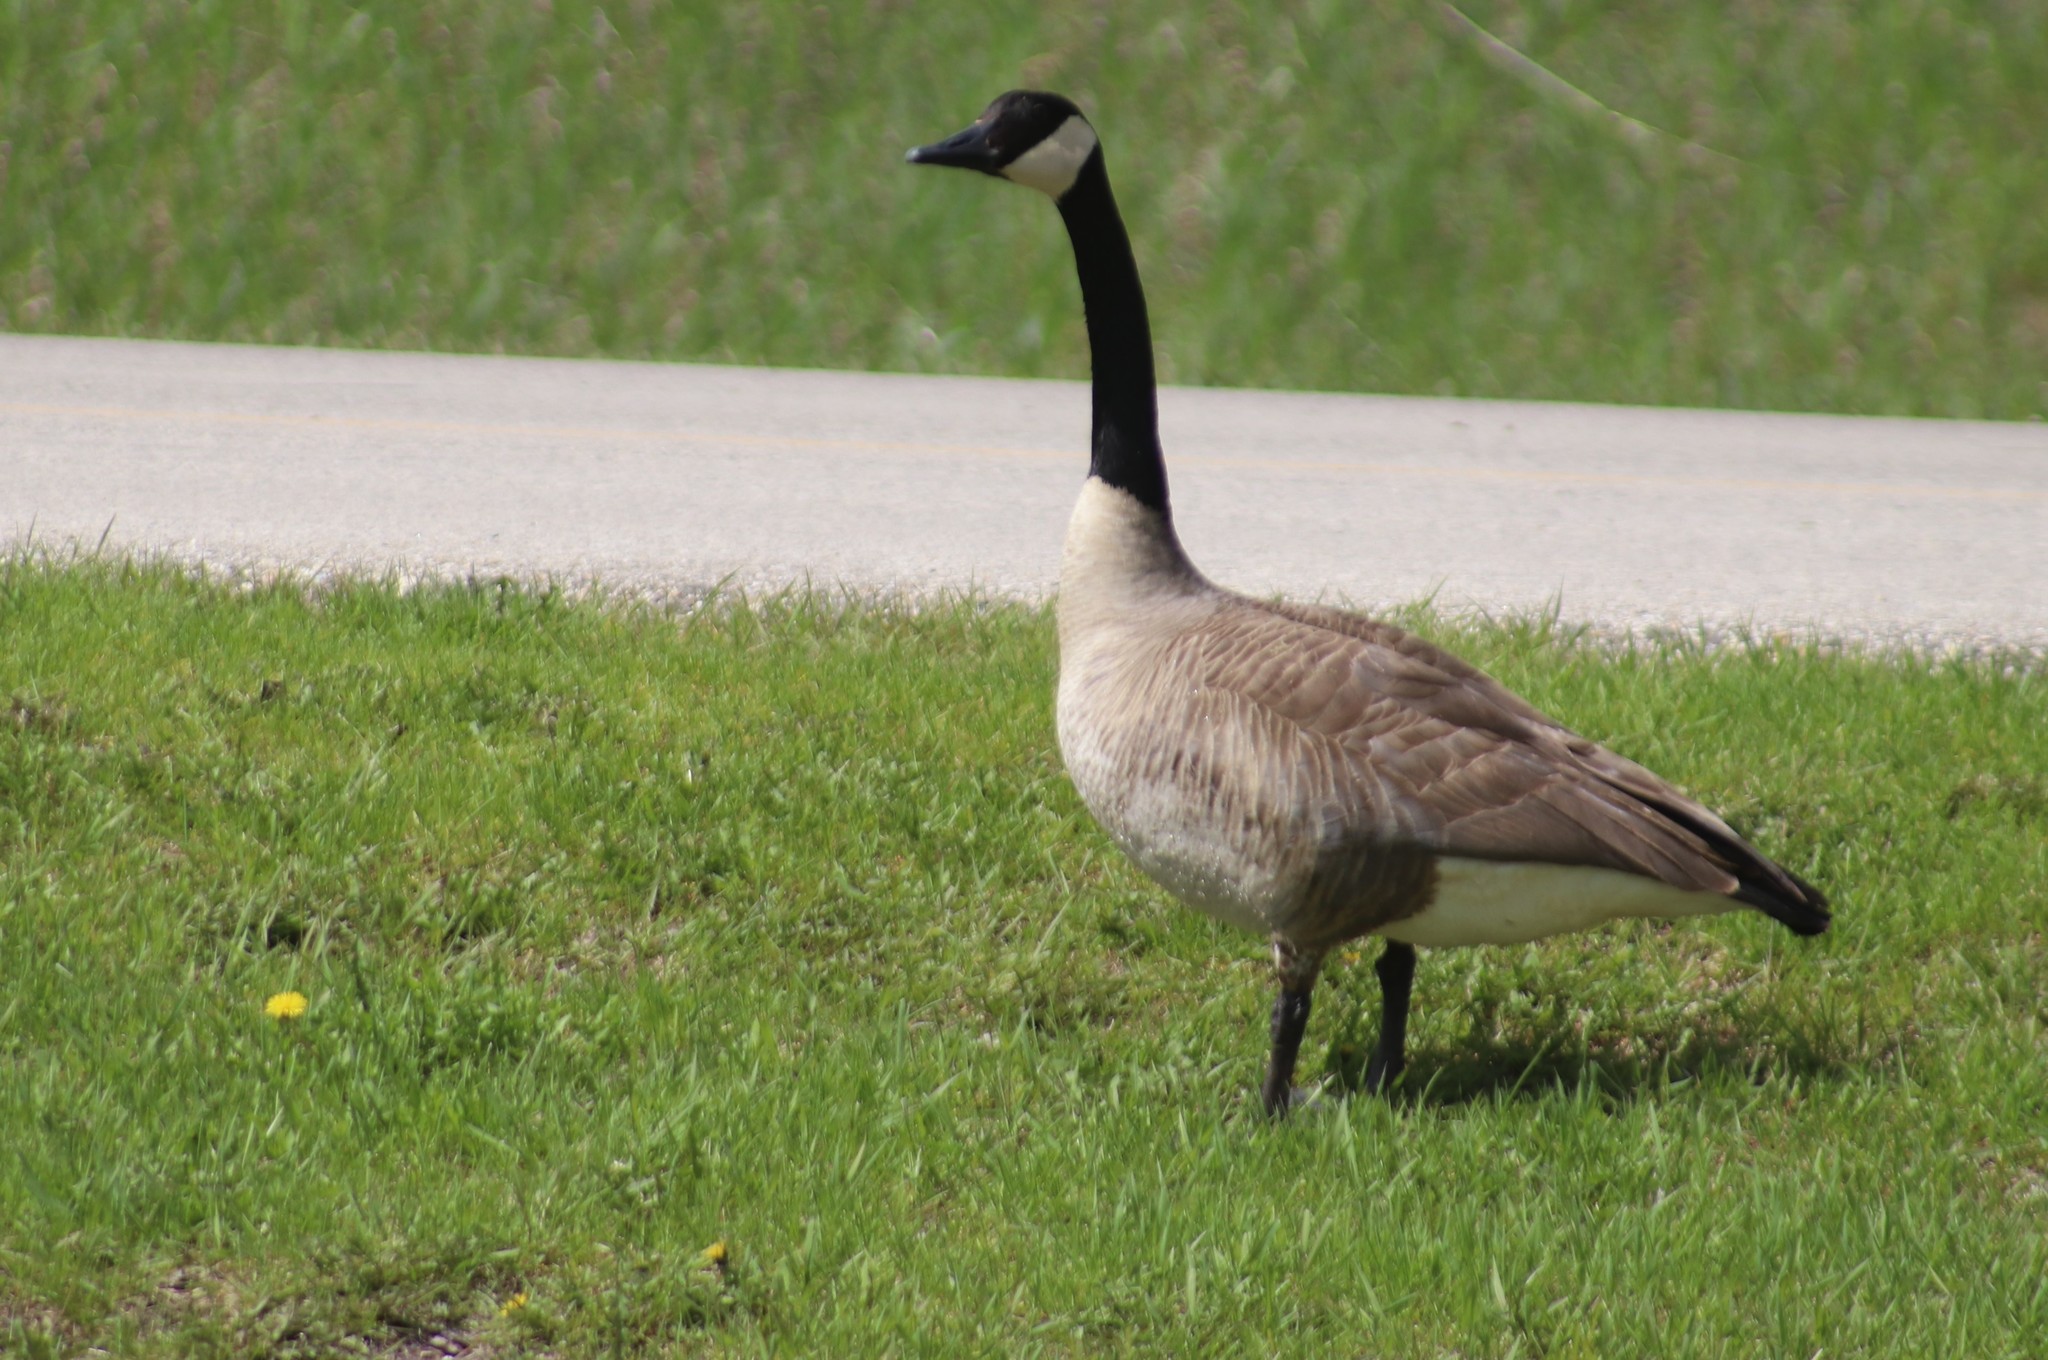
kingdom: Animalia
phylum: Chordata
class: Aves
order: Anseriformes
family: Anatidae
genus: Branta
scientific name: Branta canadensis
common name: Canada goose
